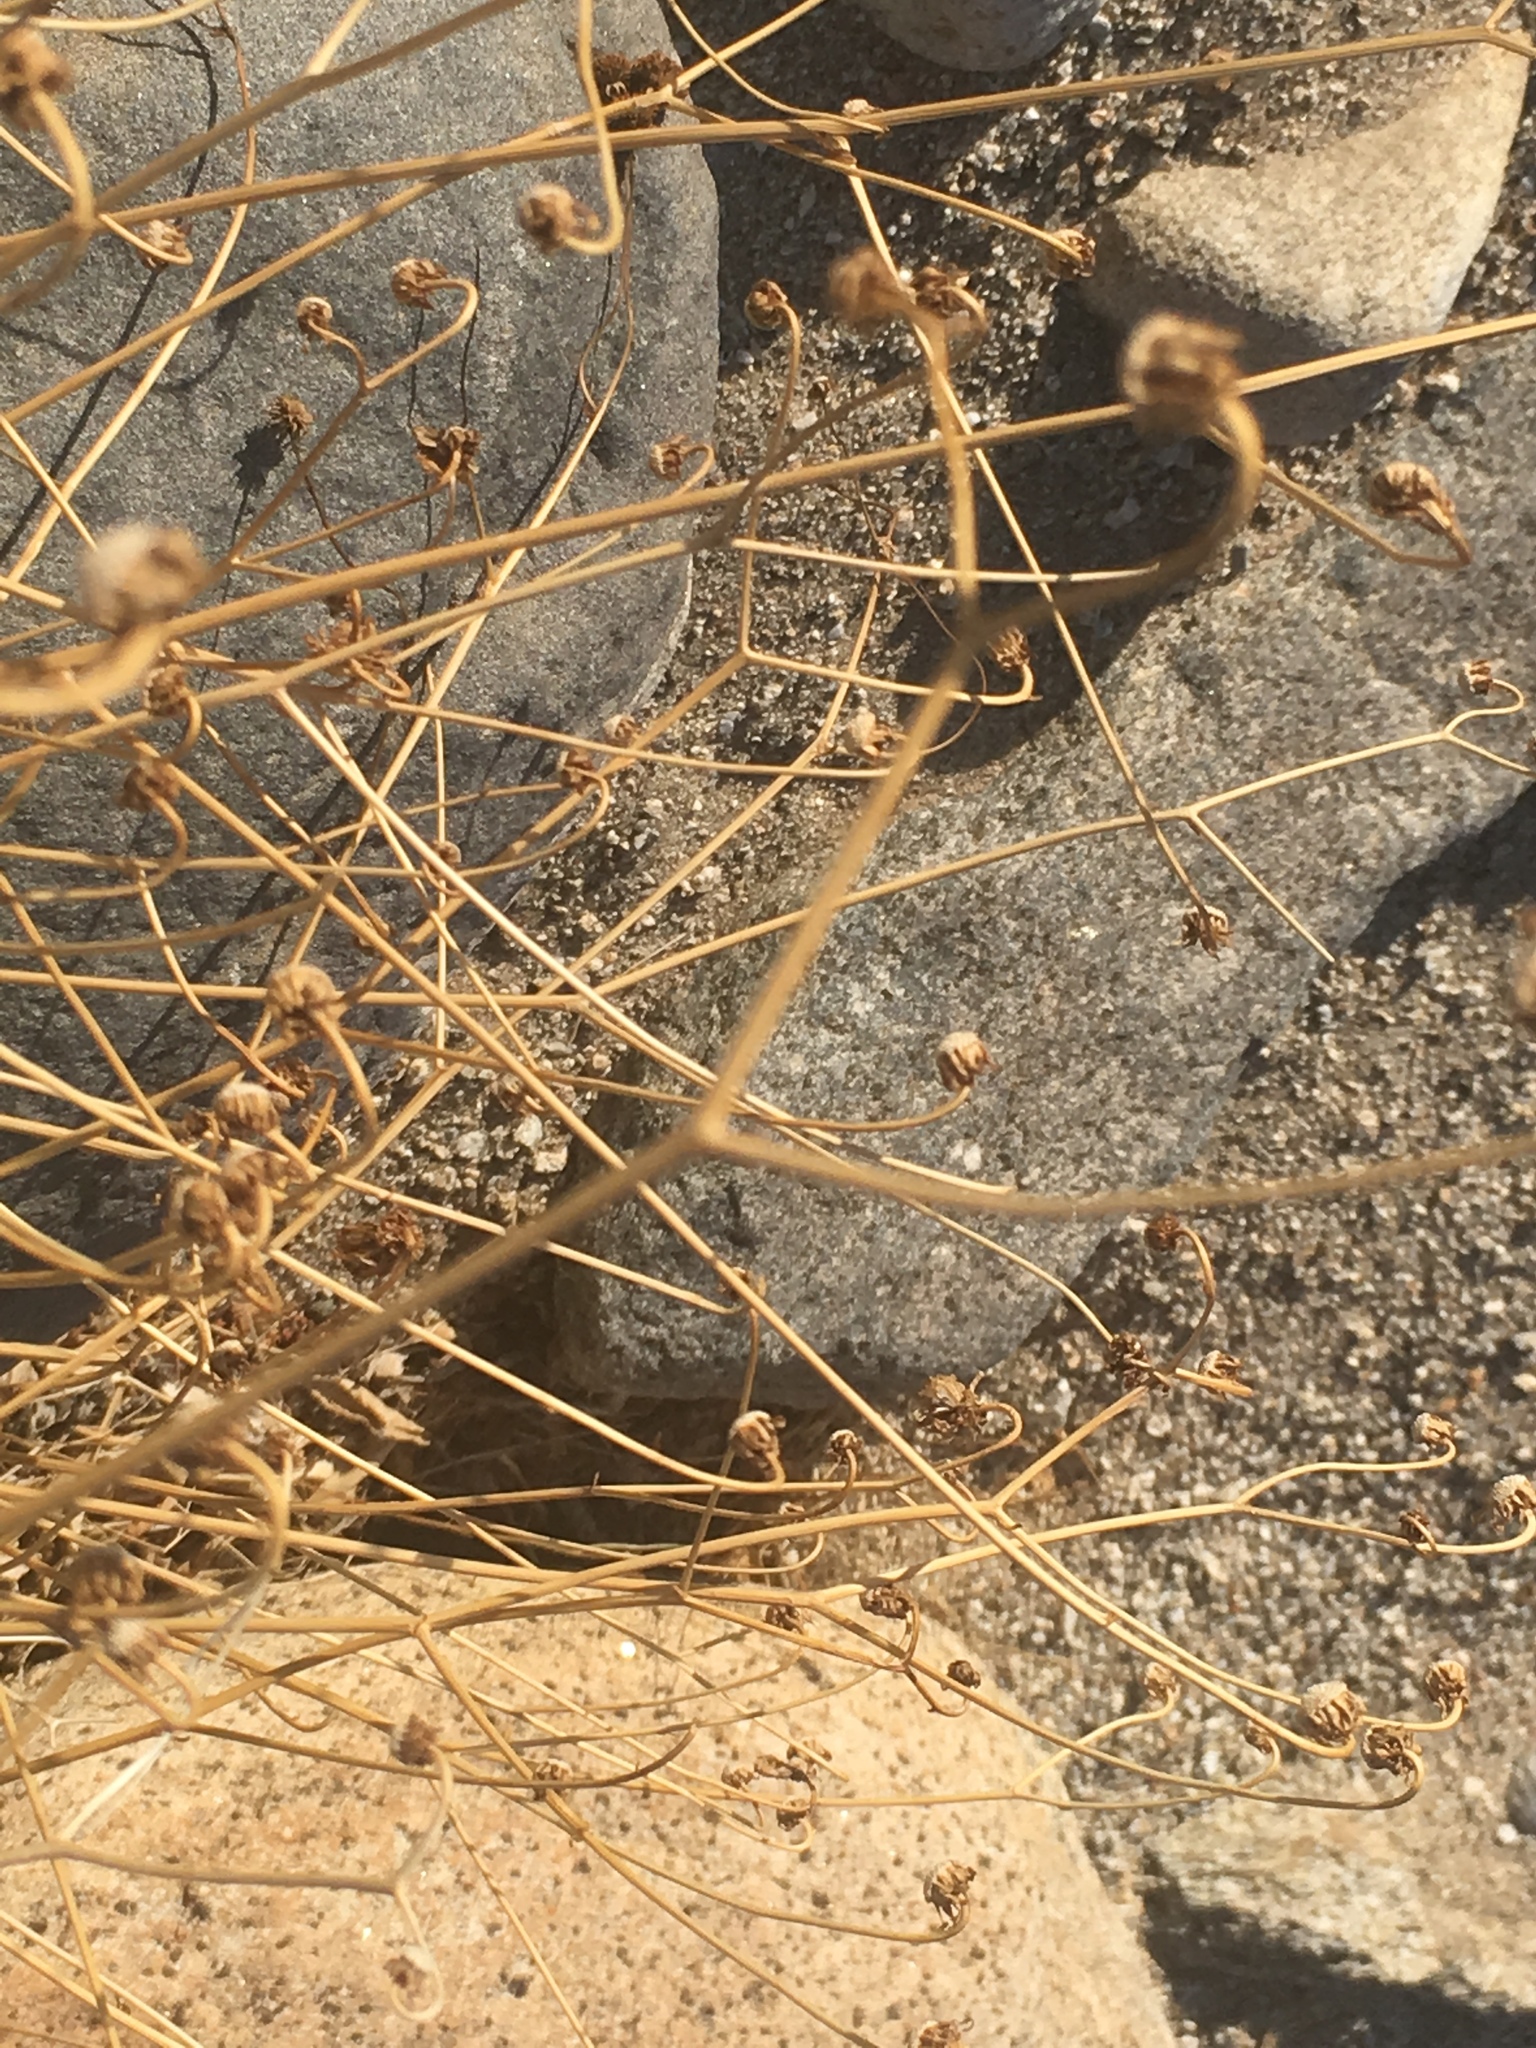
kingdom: Plantae
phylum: Tracheophyta
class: Magnoliopsida
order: Asterales
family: Asteraceae
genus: Encelia
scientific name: Encelia farinosa
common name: Brittlebush
